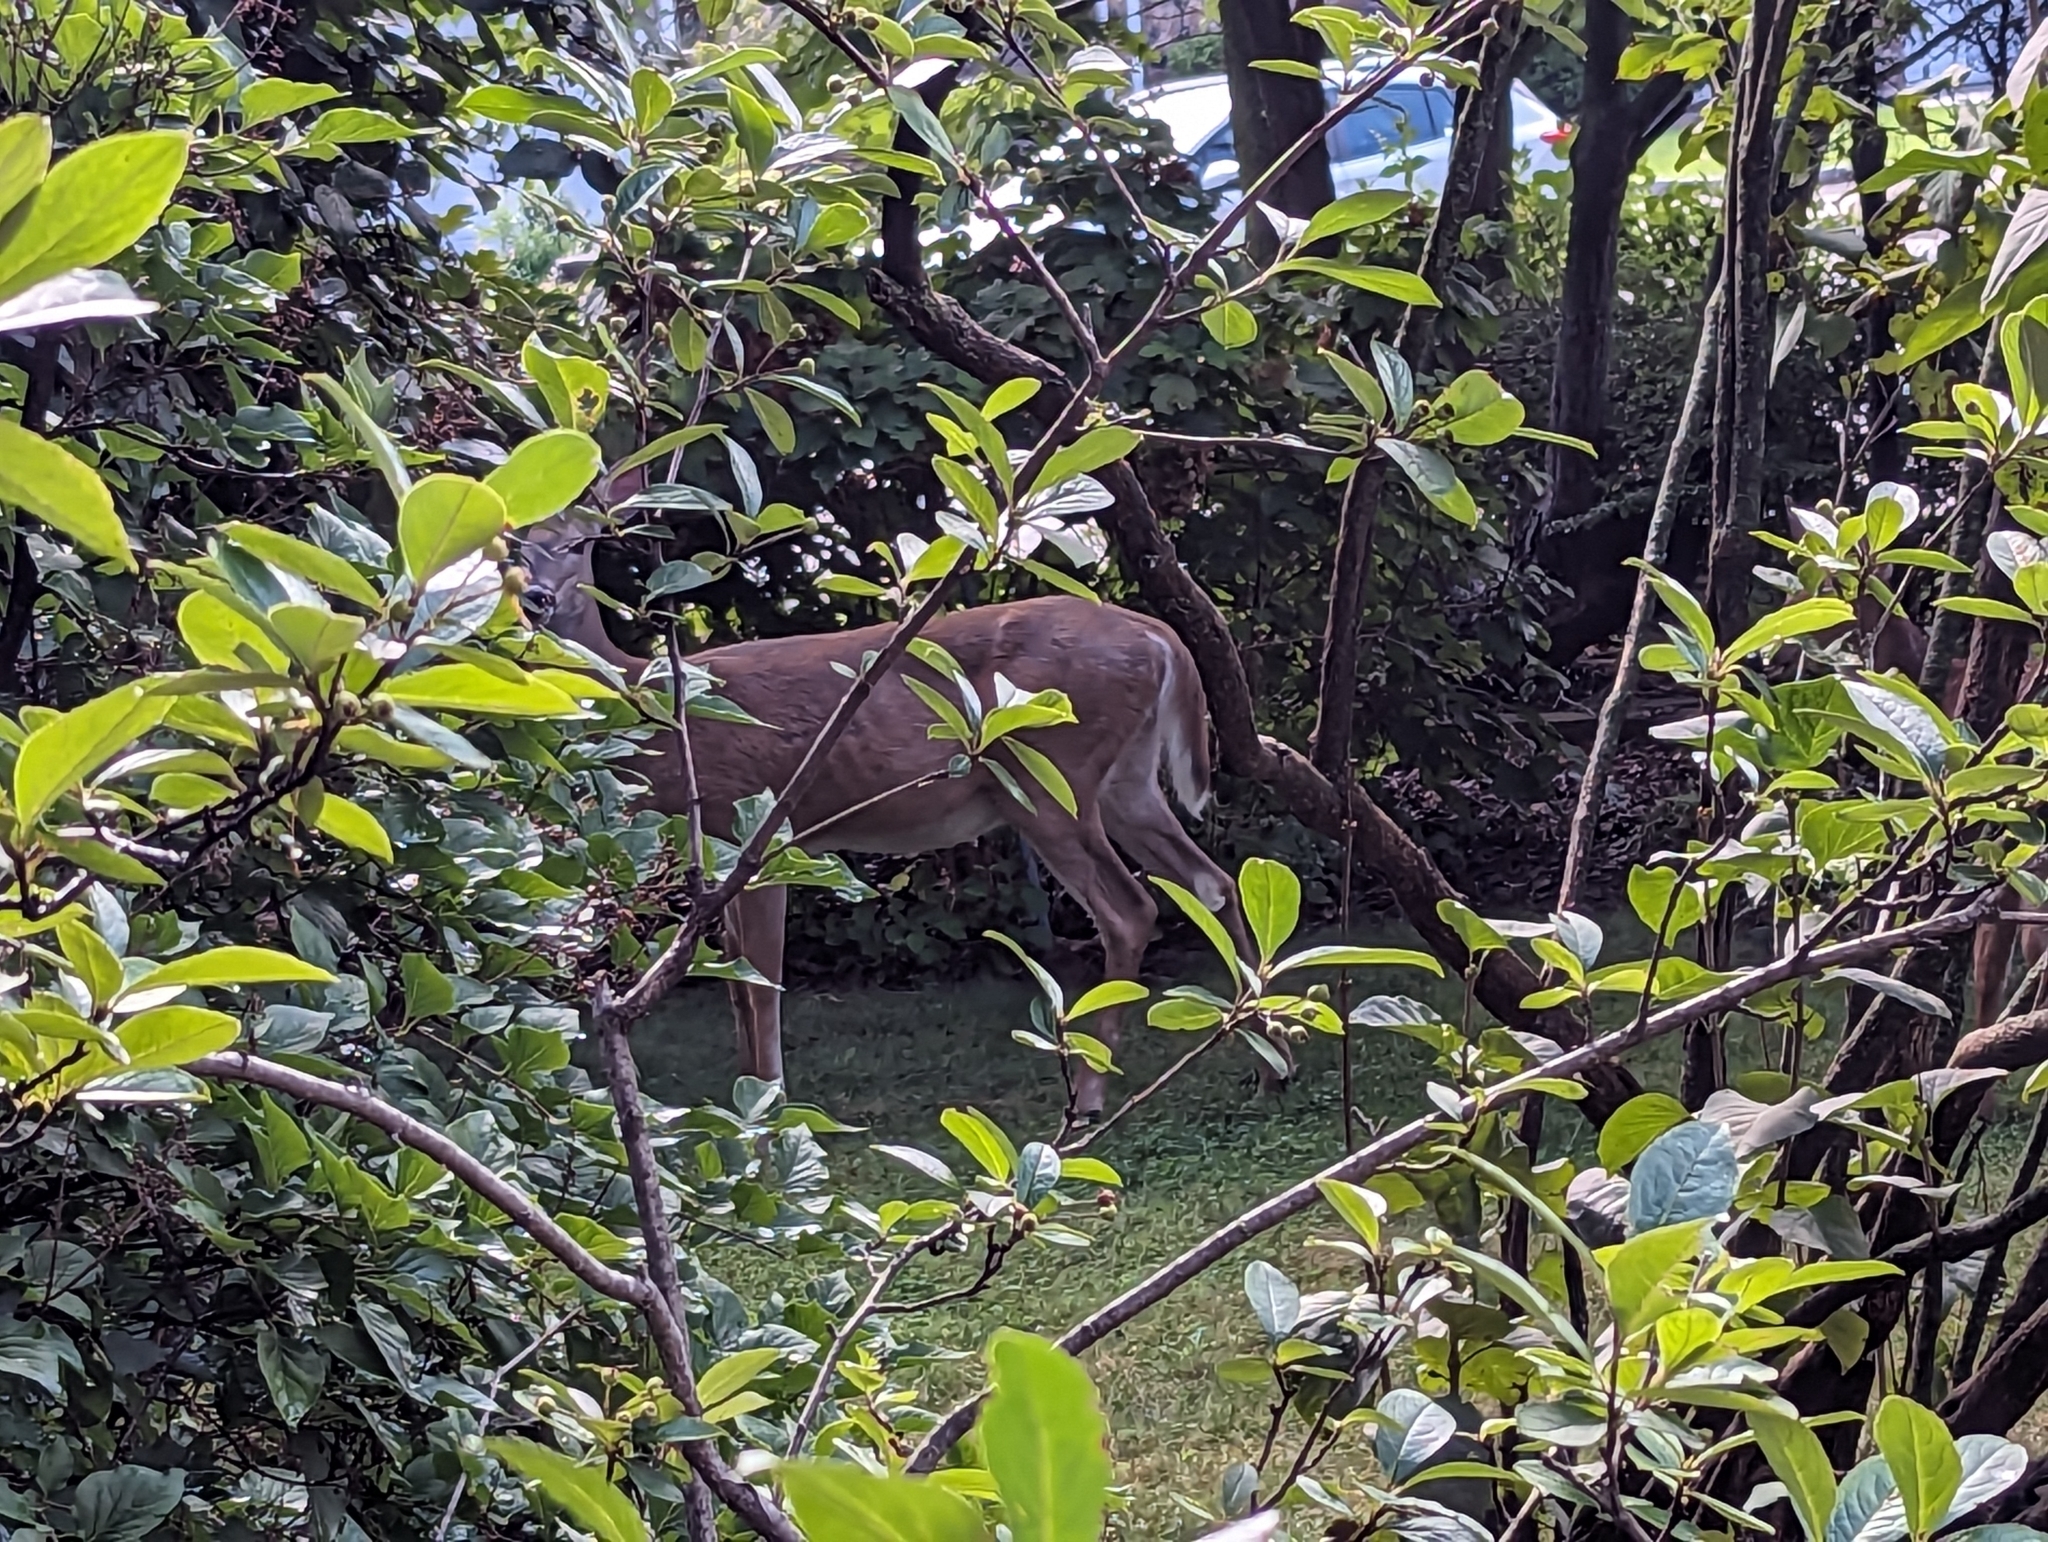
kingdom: Animalia
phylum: Chordata
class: Mammalia
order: Artiodactyla
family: Cervidae
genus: Odocoileus
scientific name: Odocoileus virginianus
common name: White-tailed deer
